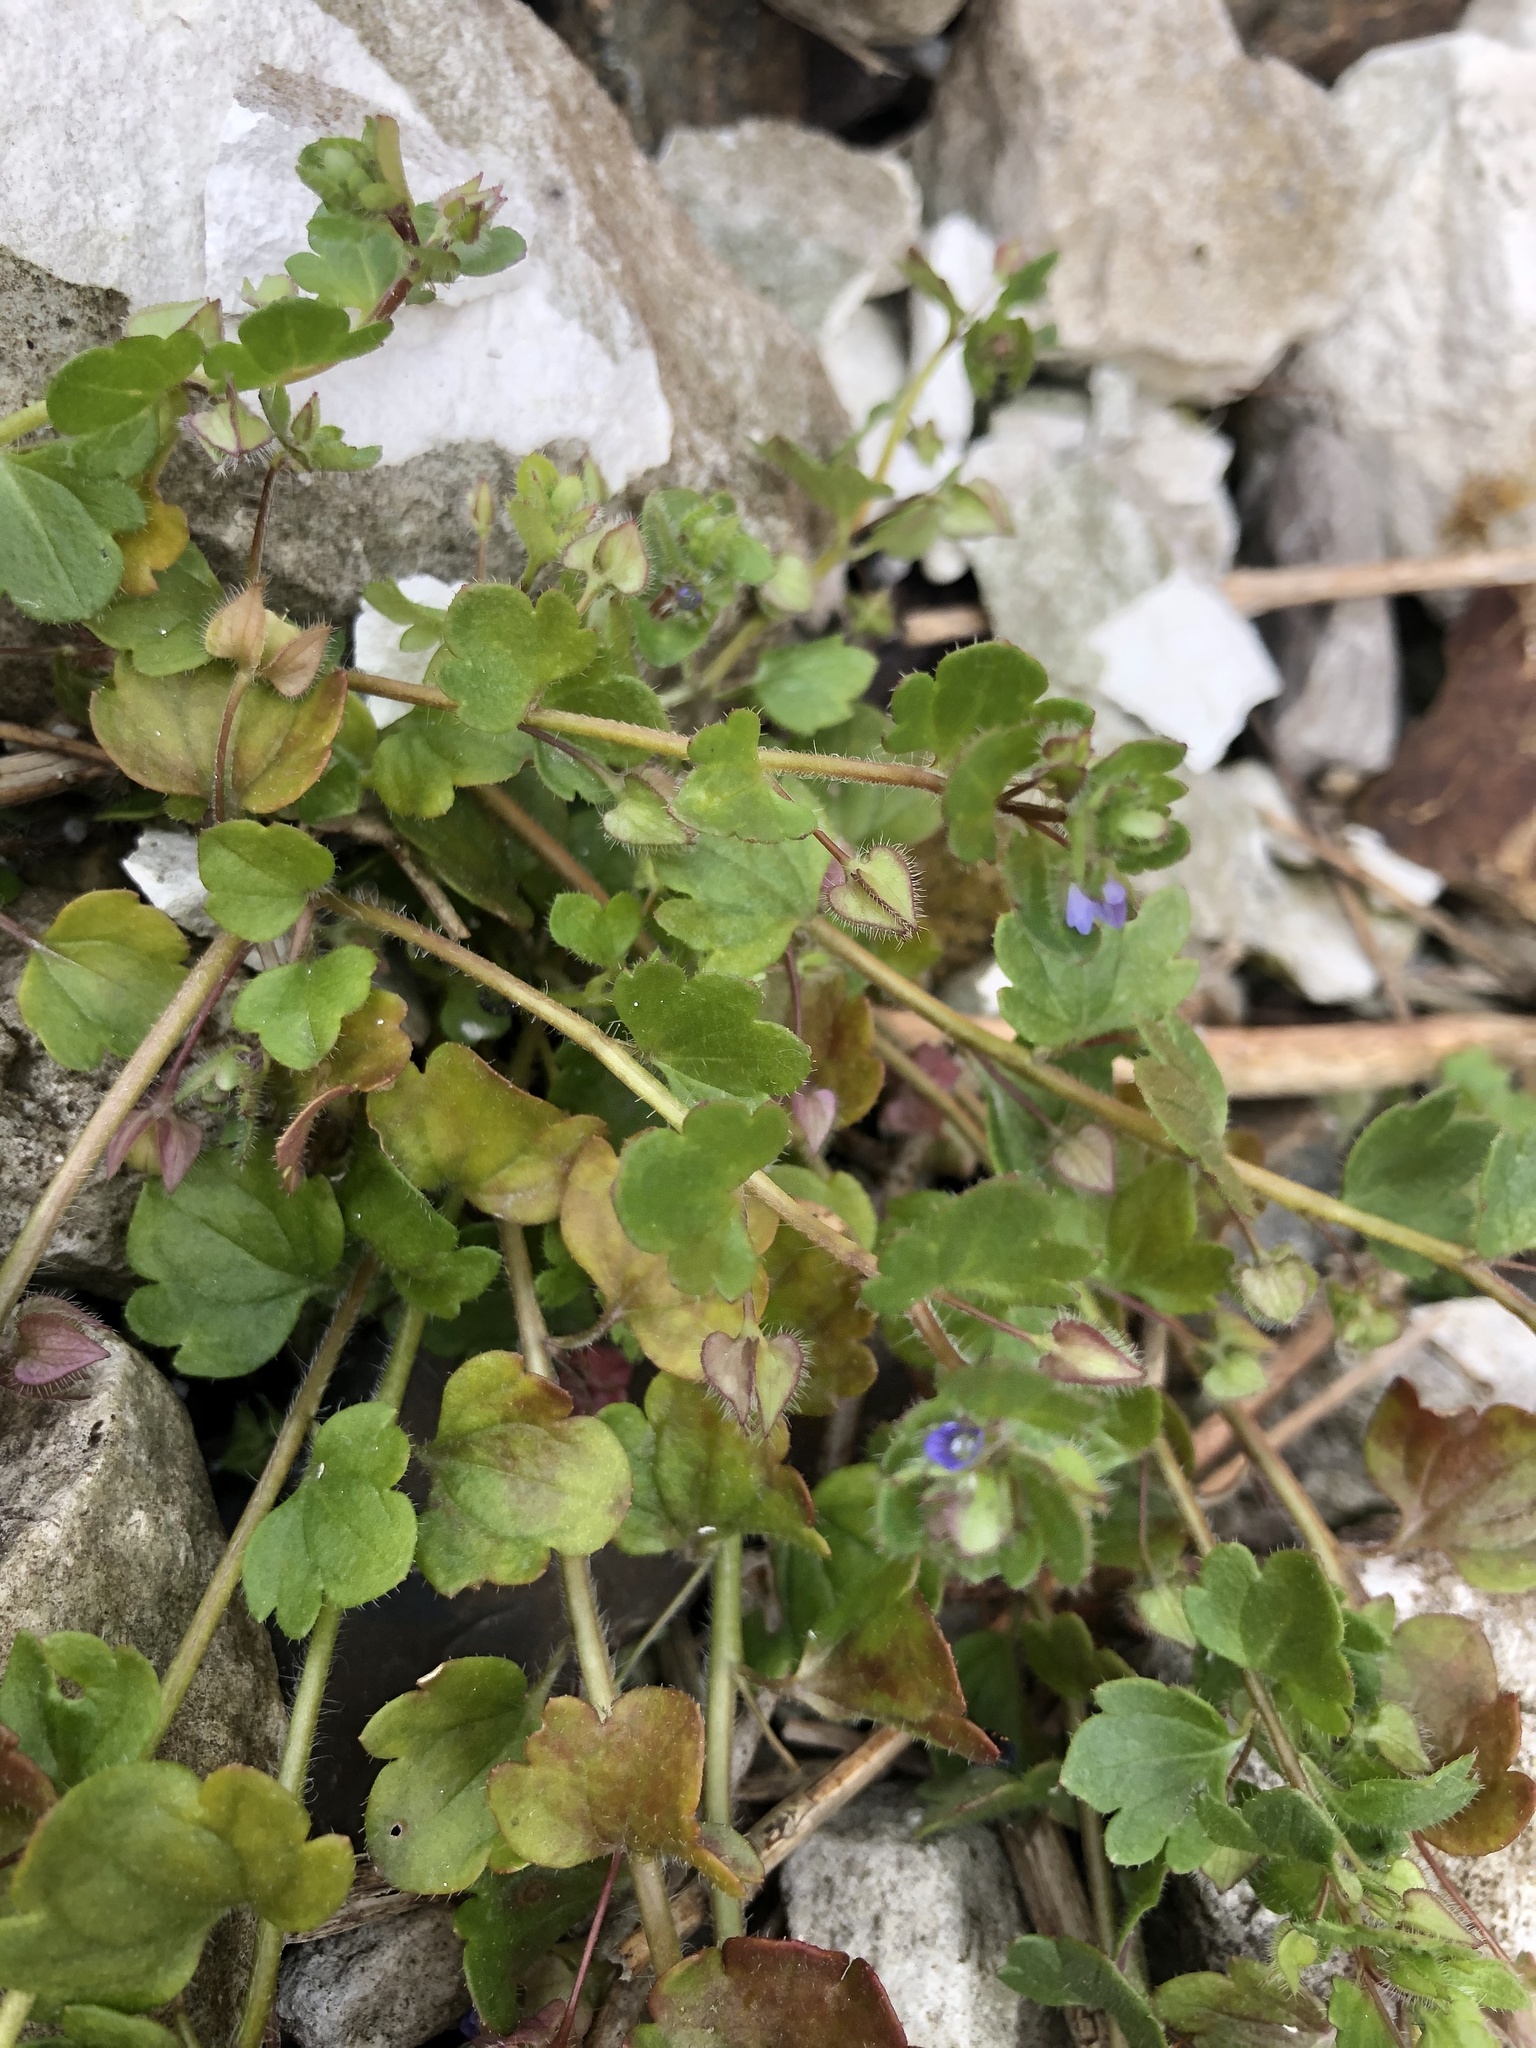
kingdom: Plantae
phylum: Tracheophyta
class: Magnoliopsida
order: Lamiales
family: Plantaginaceae
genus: Veronica
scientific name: Veronica hederifolia
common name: Ivy-leaved speedwell
